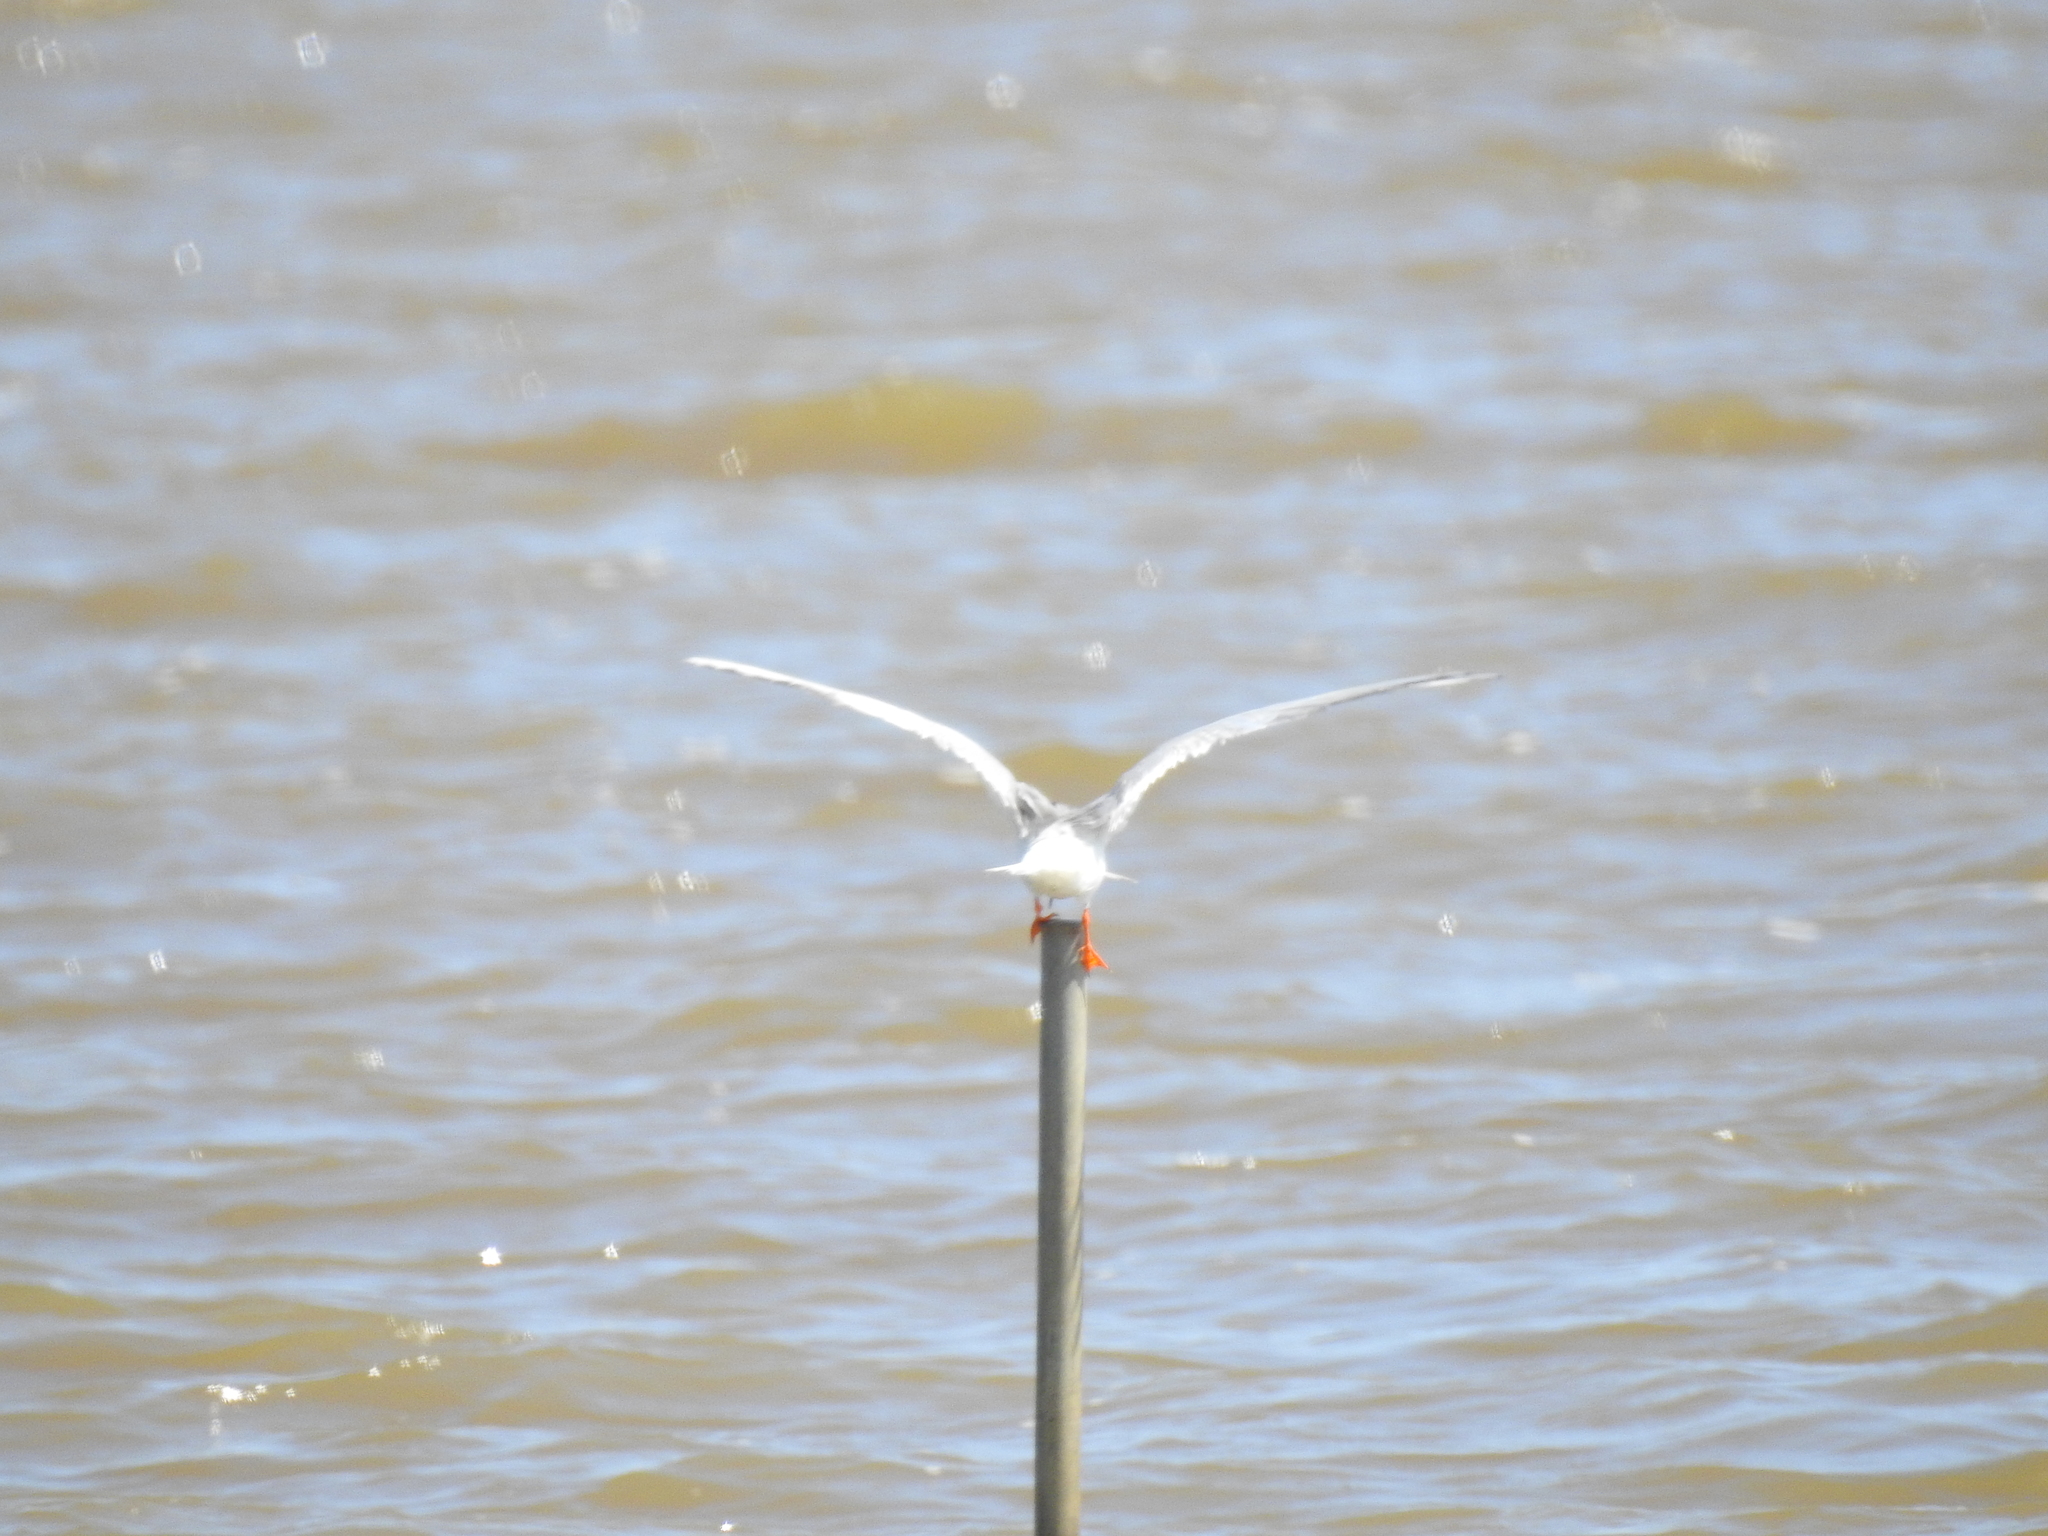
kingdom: Animalia
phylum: Chordata
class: Aves
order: Charadriiformes
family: Laridae
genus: Sterna
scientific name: Sterna forsteri
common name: Forster's tern
